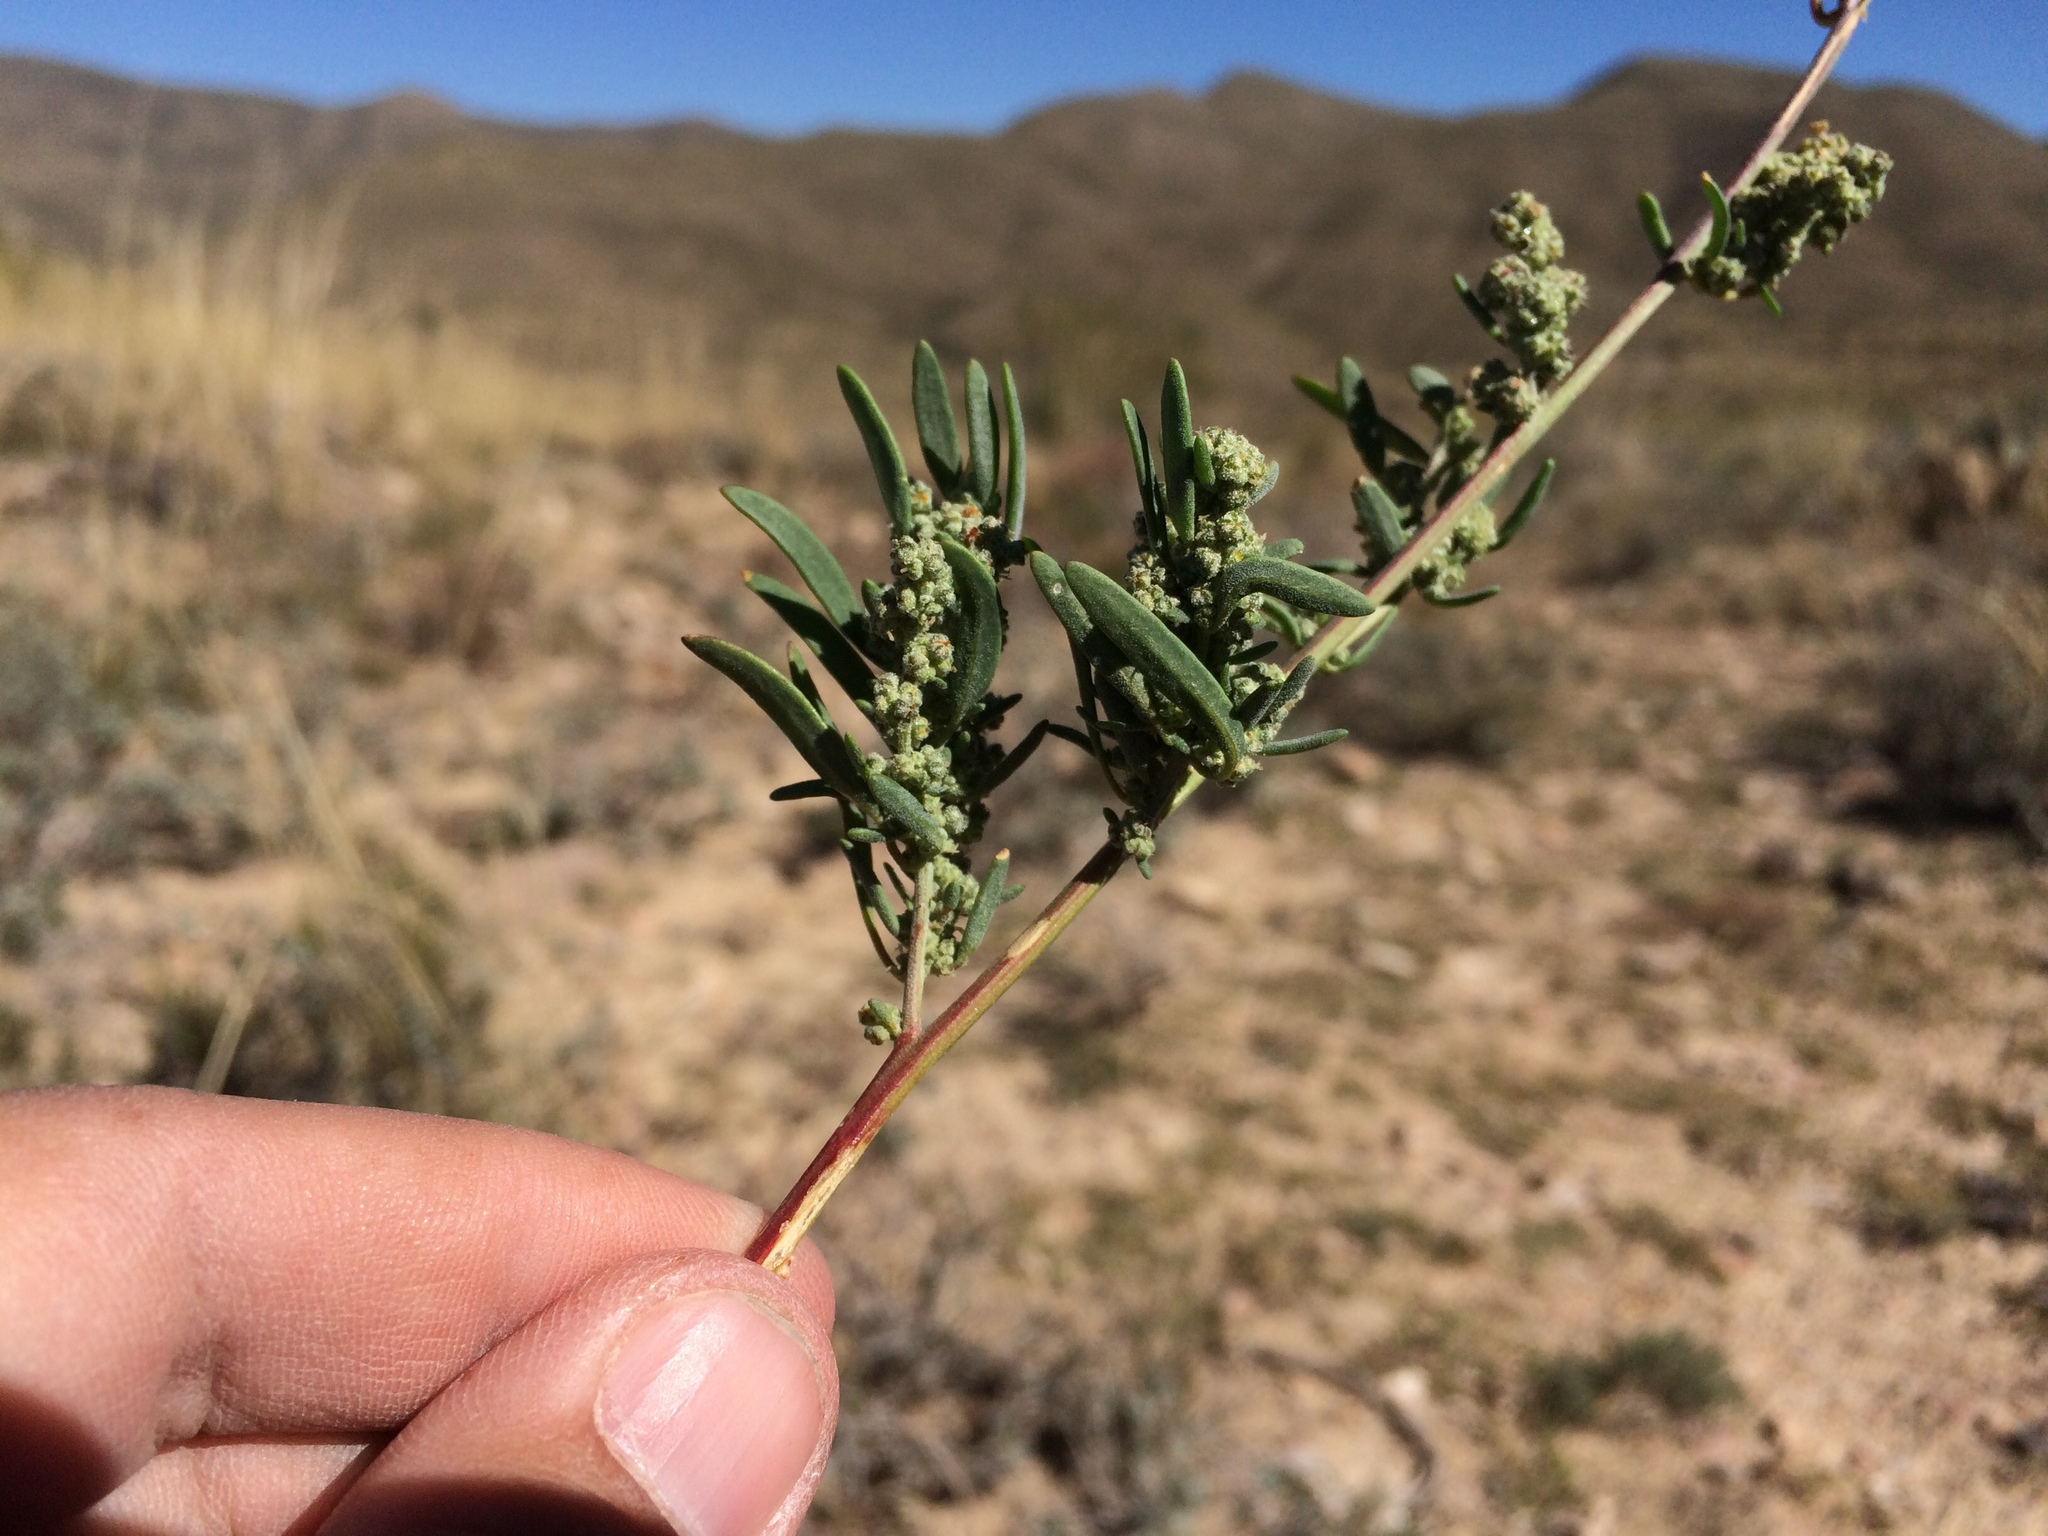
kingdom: Plantae
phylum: Tracheophyta
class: Magnoliopsida
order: Caryophyllales
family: Amaranthaceae
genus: Chenopodium
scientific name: Chenopodium leptophyllum
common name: Narrow-leaf goosefoot
